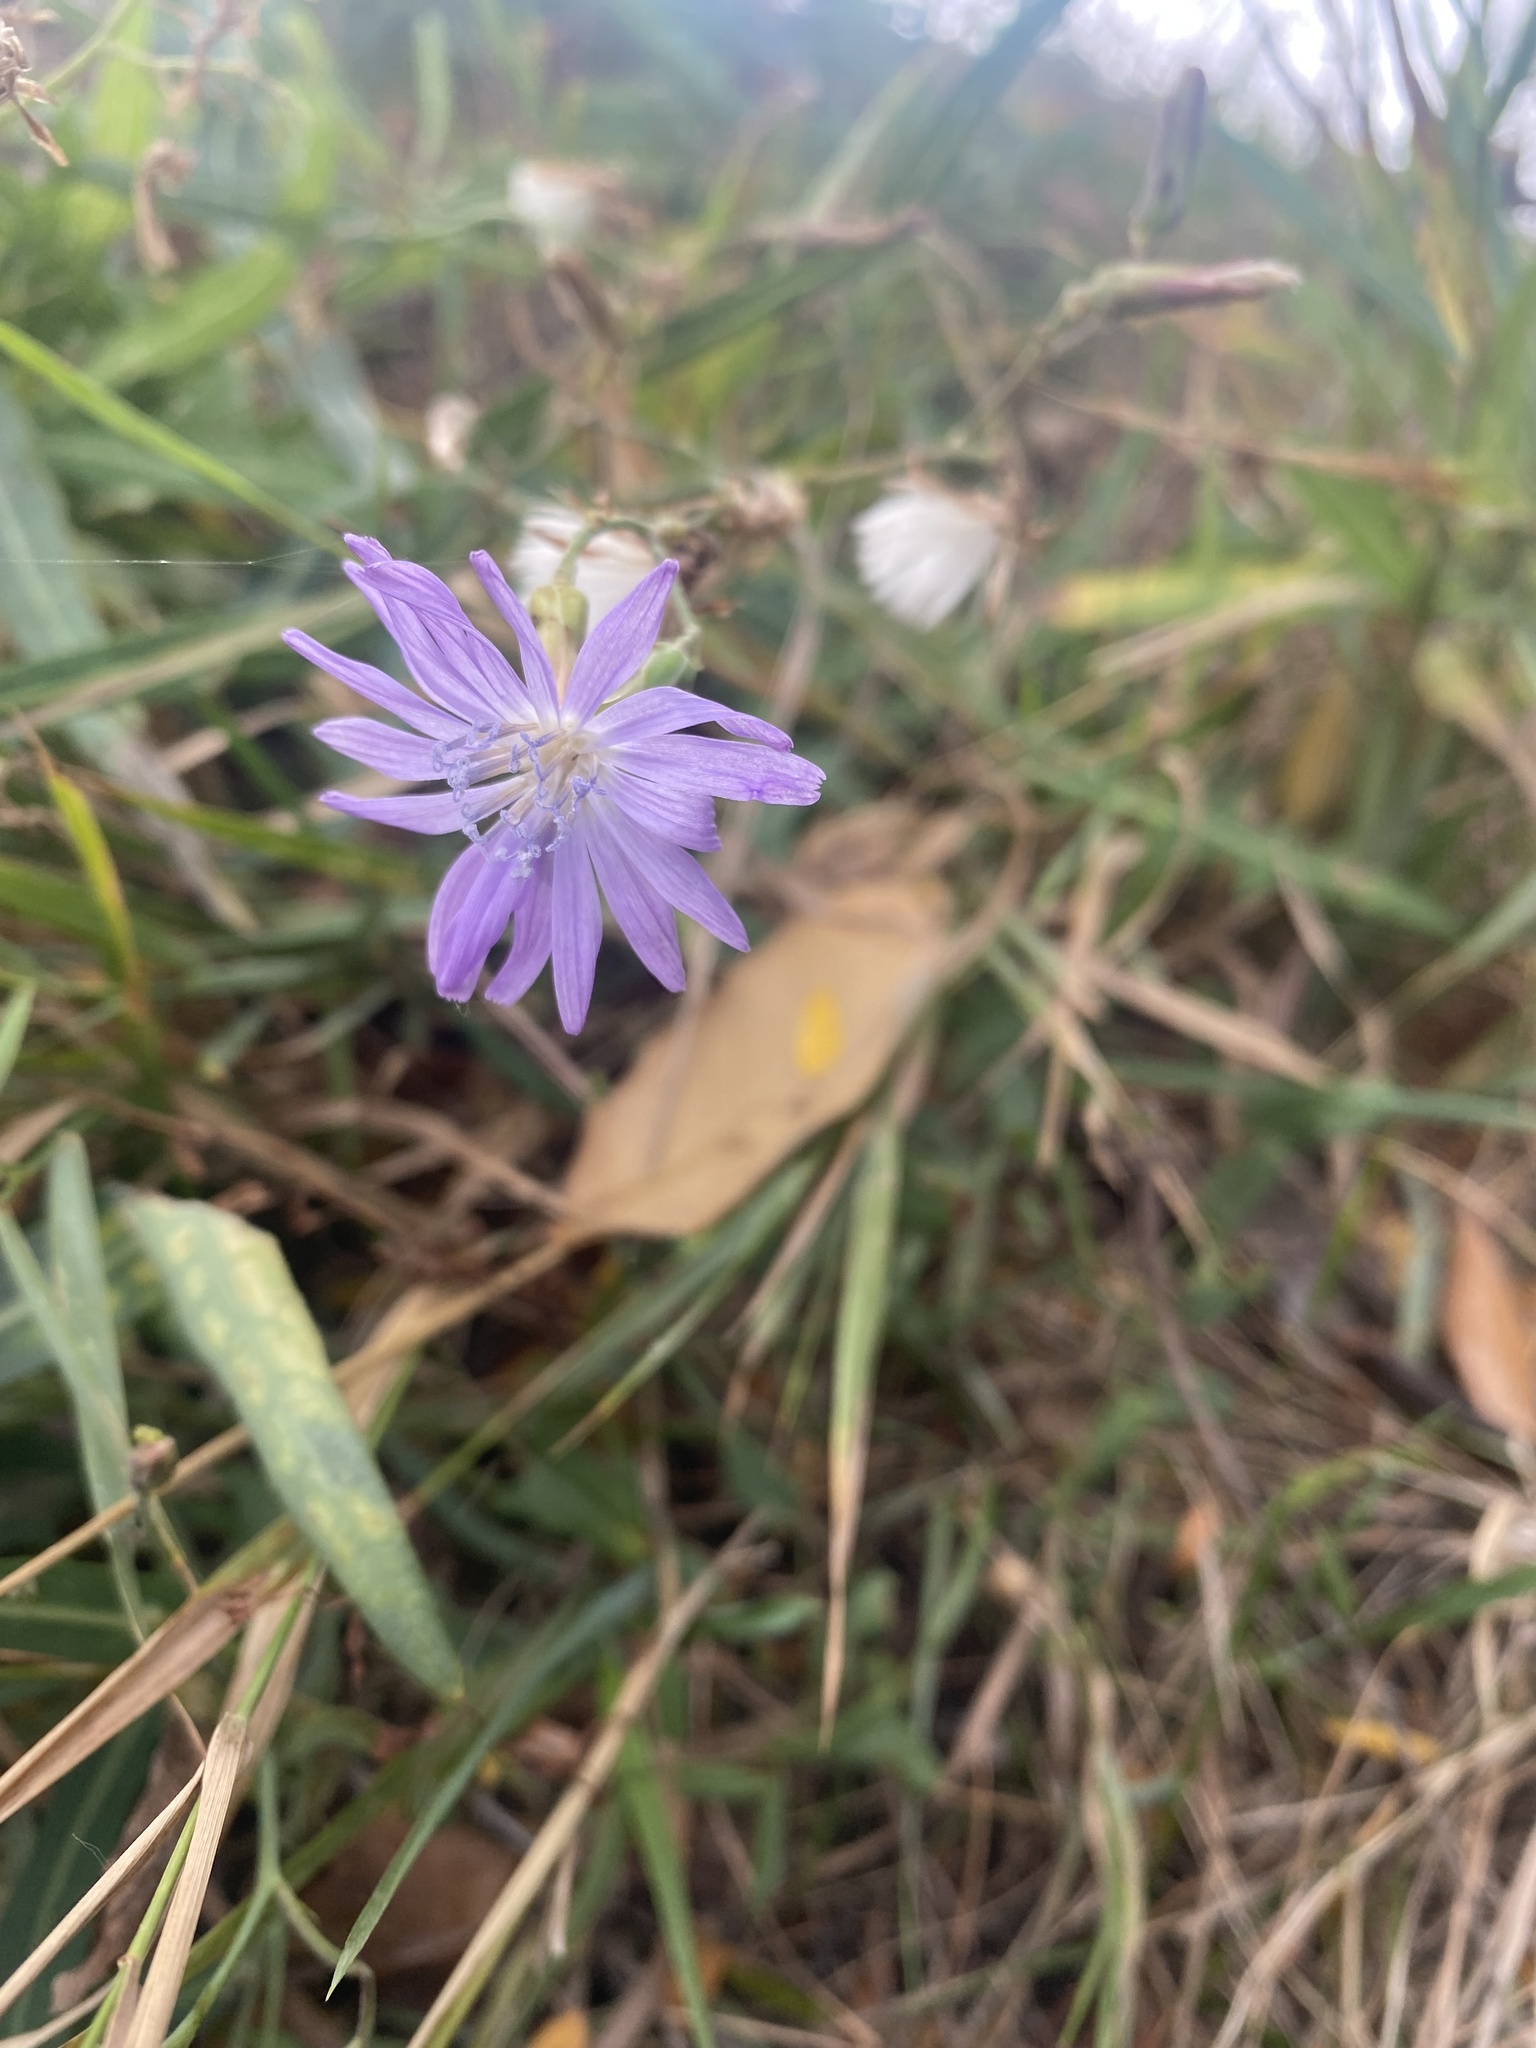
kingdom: Plantae
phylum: Tracheophyta
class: Magnoliopsida
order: Asterales
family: Asteraceae
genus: Lactuca
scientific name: Lactuca tatarica
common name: Blue lettuce
